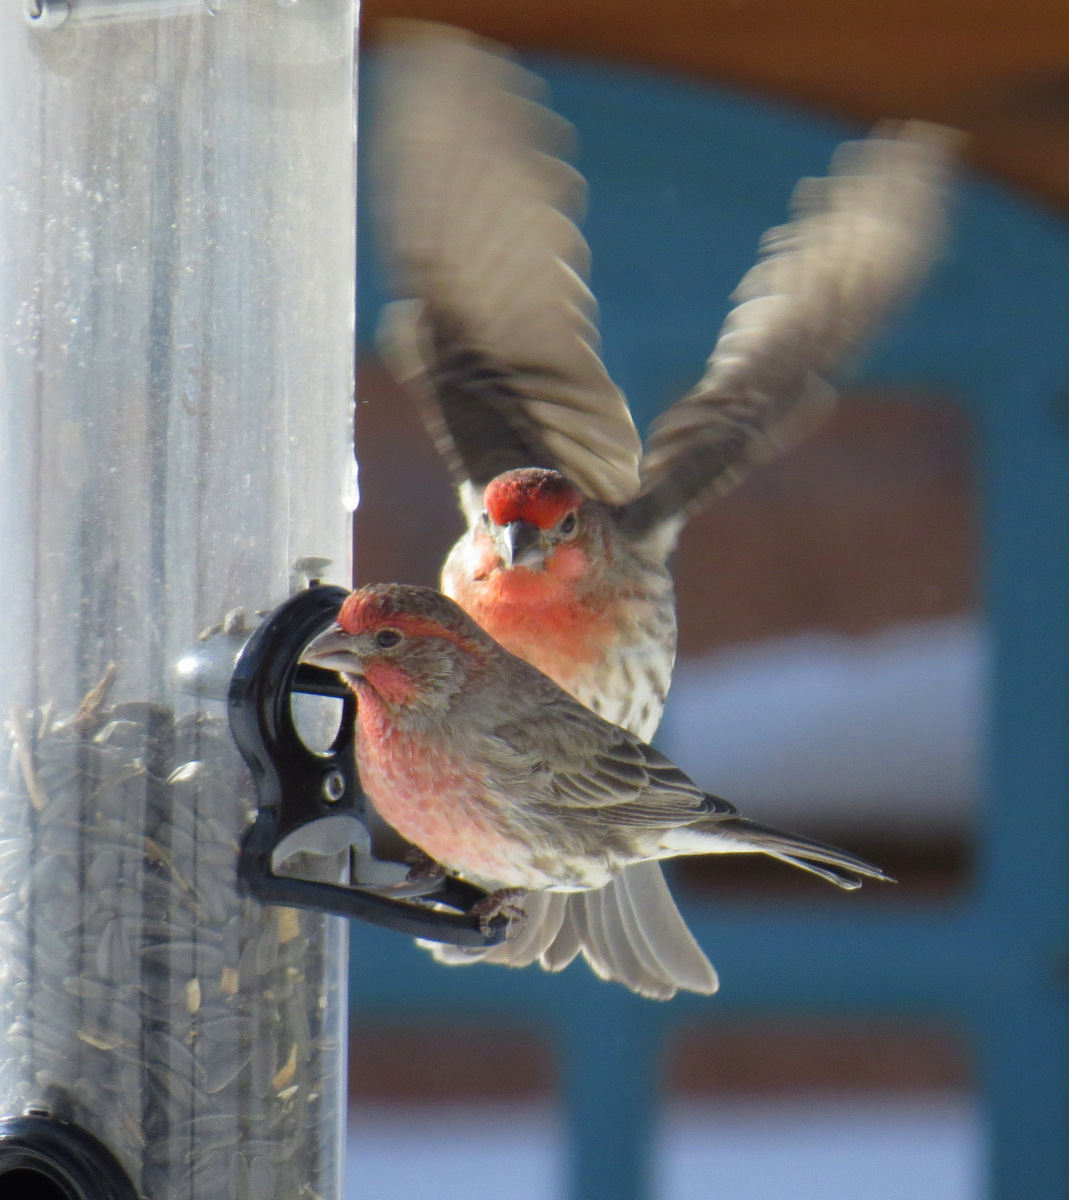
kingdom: Animalia
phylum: Chordata
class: Aves
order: Passeriformes
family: Fringillidae
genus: Haemorhous
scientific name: Haemorhous mexicanus
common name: House finch
